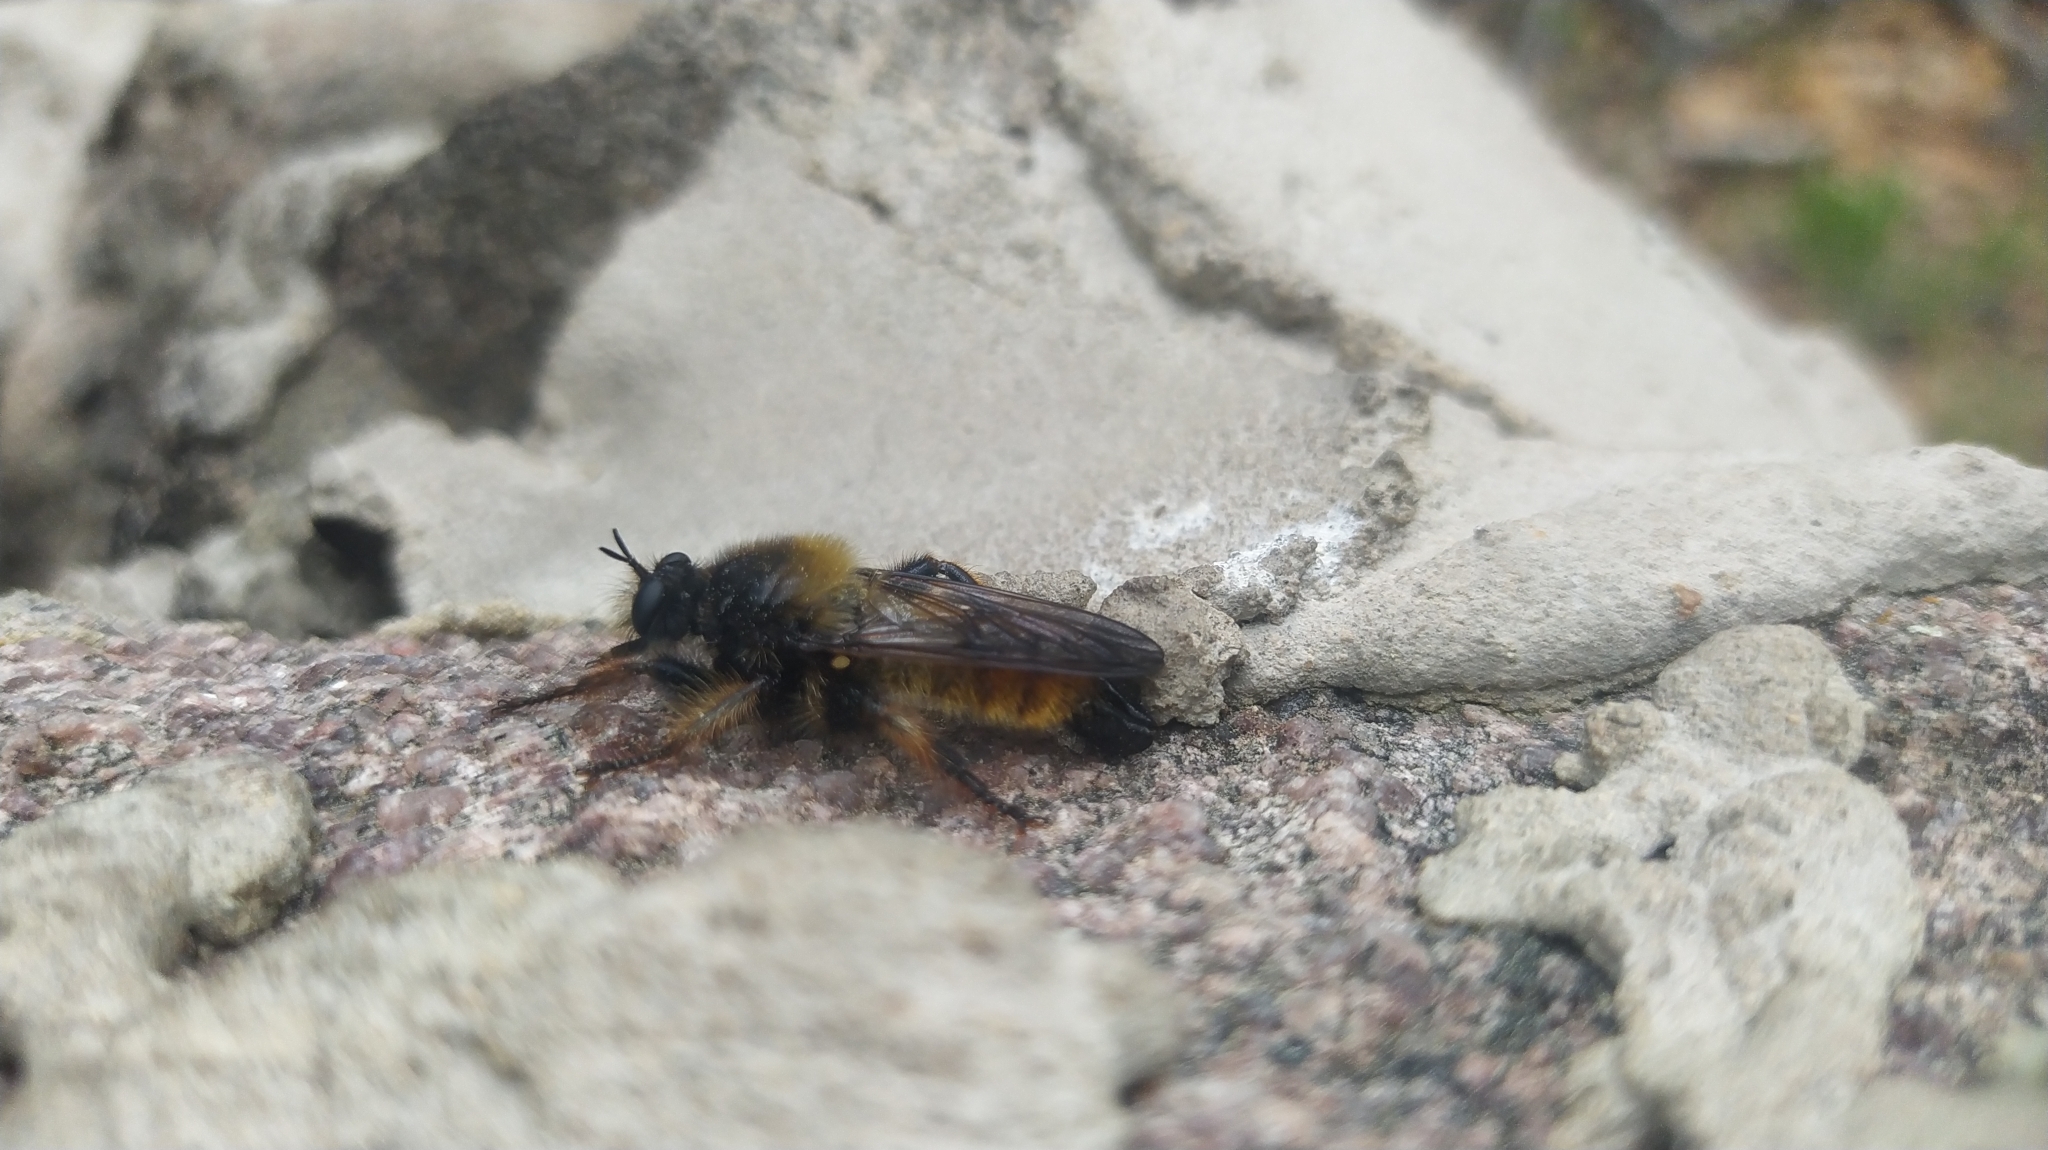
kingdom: Animalia
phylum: Arthropoda
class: Insecta
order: Diptera
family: Asilidae
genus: Laphria
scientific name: Laphria flava
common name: Bumblebee robberfly
